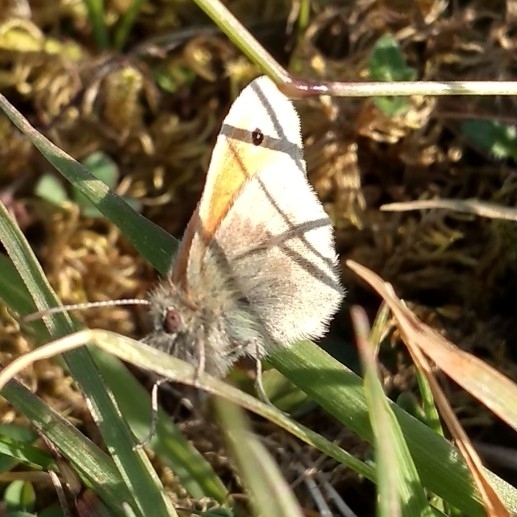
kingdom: Animalia
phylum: Arthropoda
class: Insecta
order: Lepidoptera
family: Nymphalidae
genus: Coenonympha
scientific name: Coenonympha pamphilus
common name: Small heath
